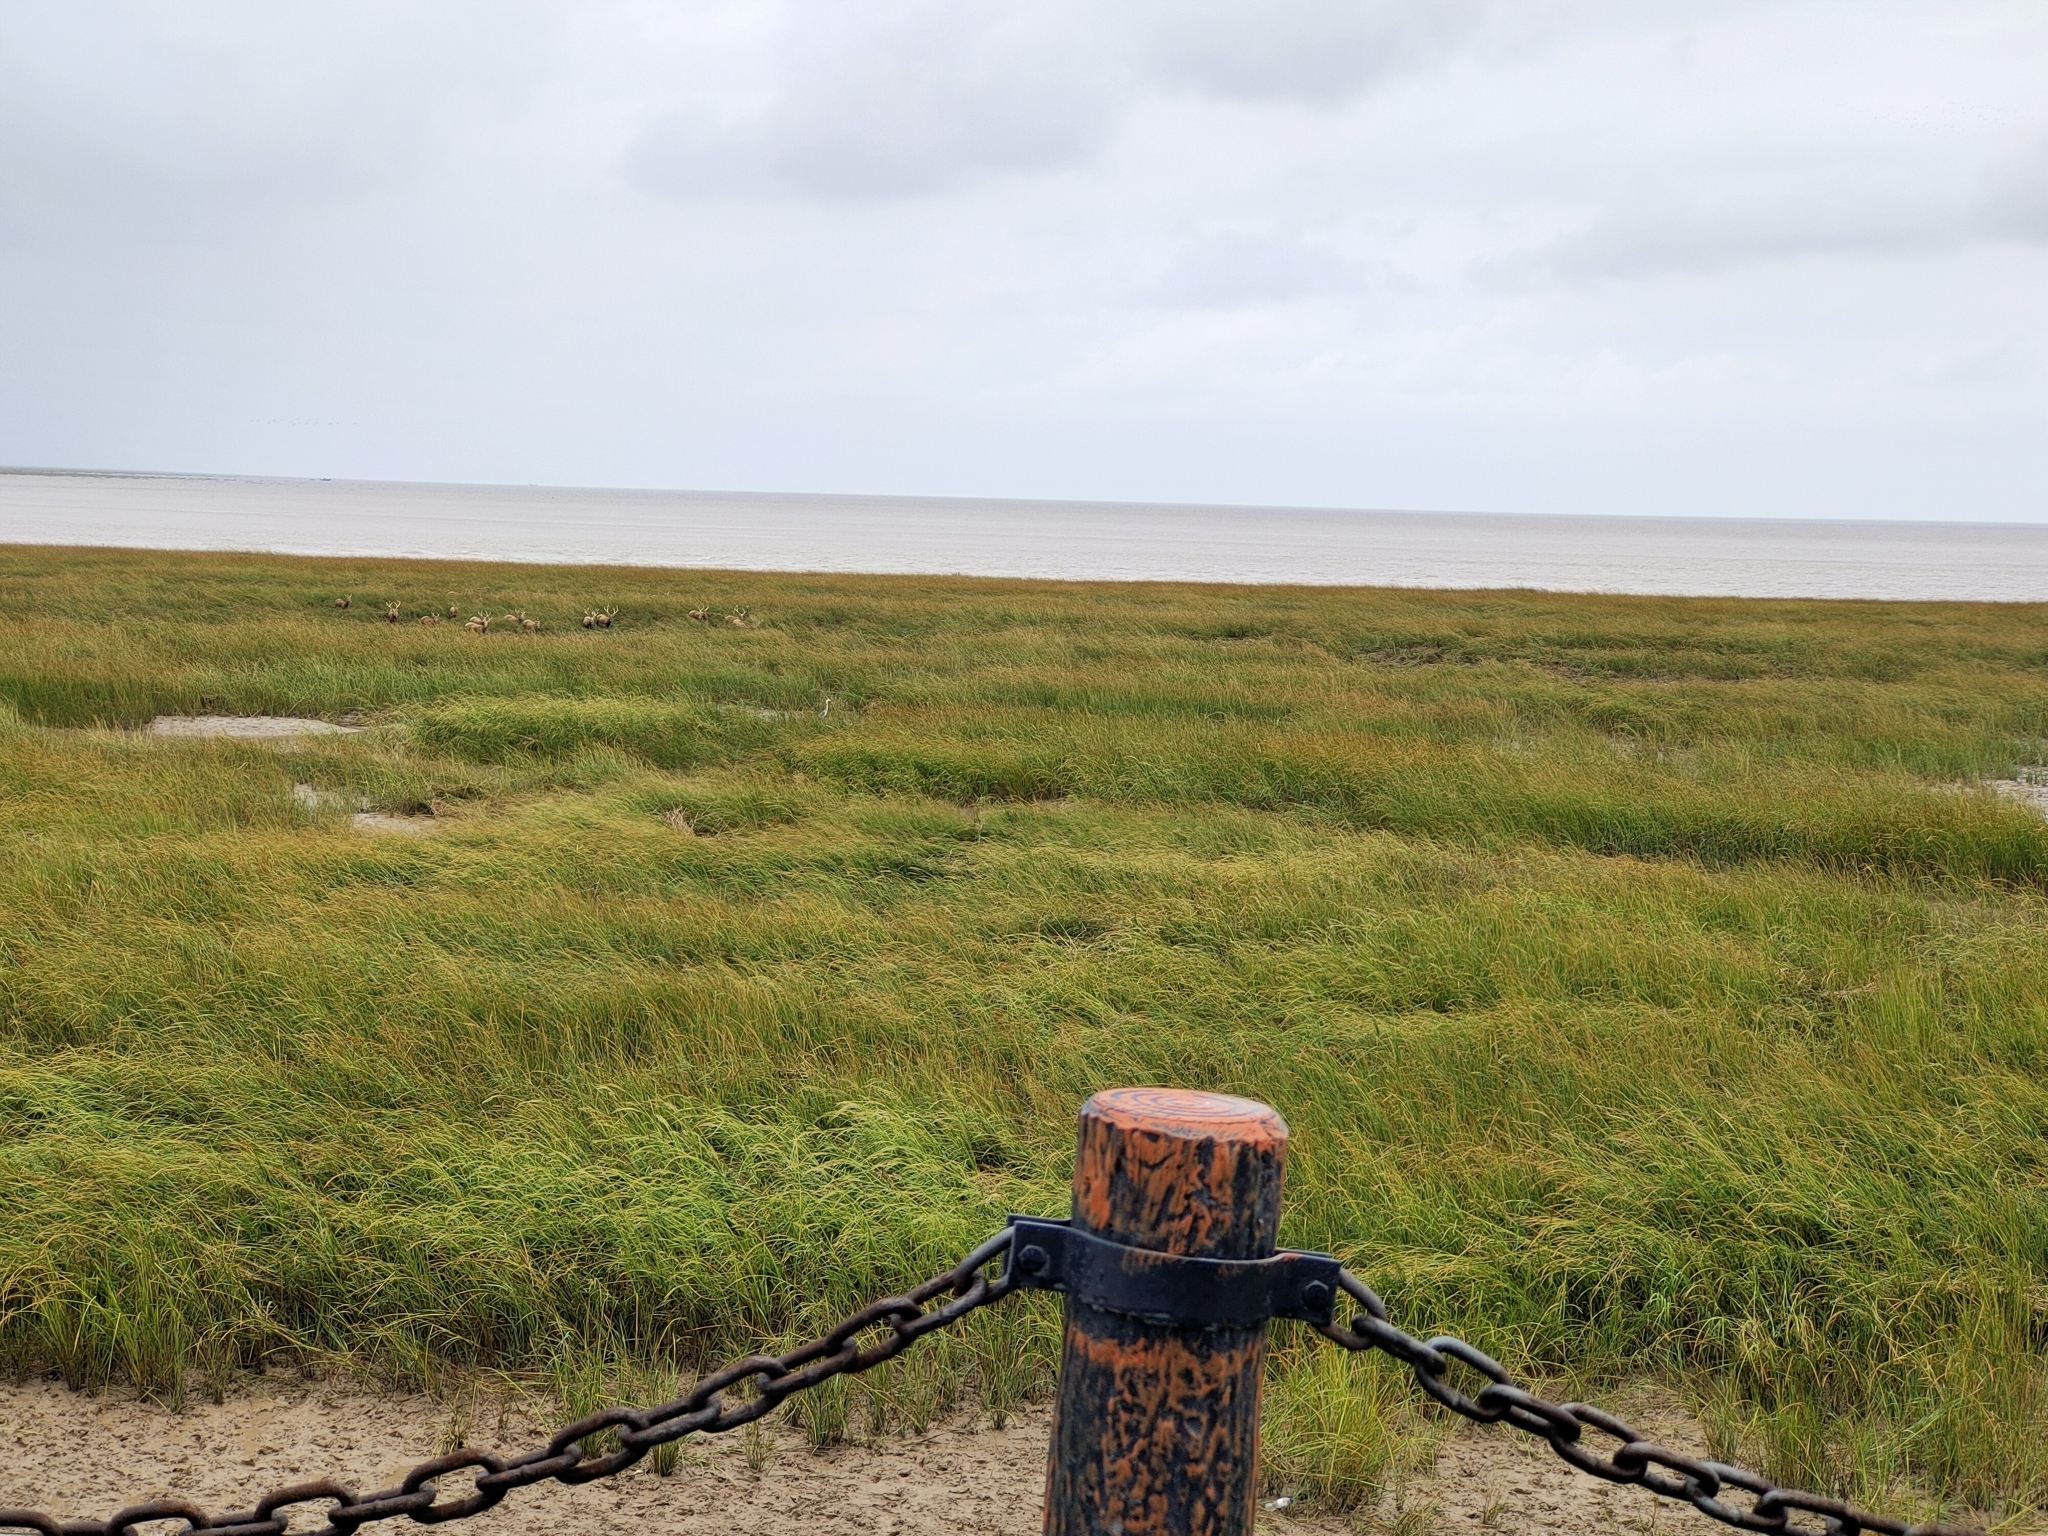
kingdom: Animalia
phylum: Chordata
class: Mammalia
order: Artiodactyla
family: Cervidae
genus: Elaphurus
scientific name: Elaphurus davidianus
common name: Père david's deer
